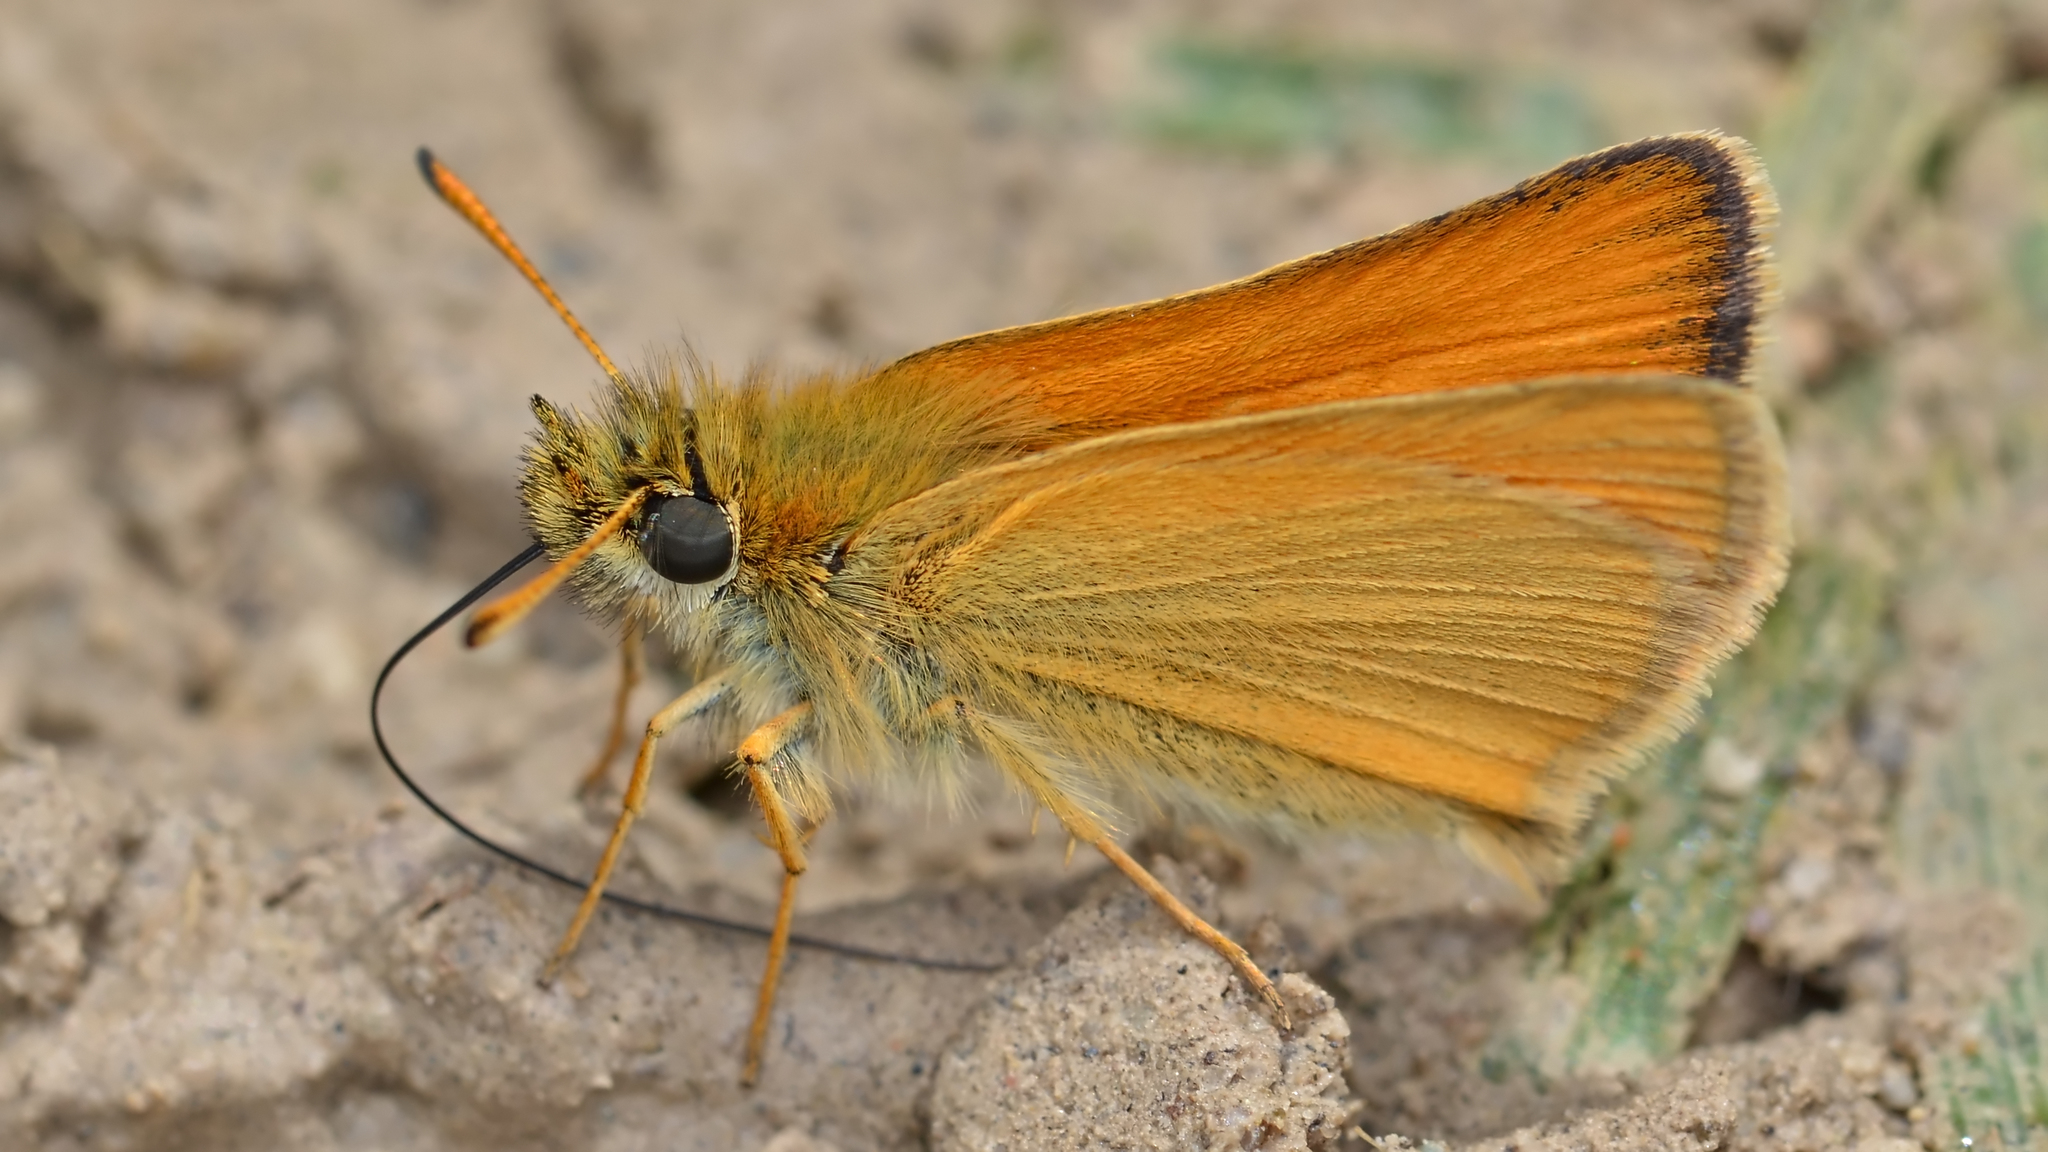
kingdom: Animalia
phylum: Arthropoda
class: Insecta
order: Lepidoptera
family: Hesperiidae
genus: Thymelicus
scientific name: Thymelicus lineola
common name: Essex skipper
